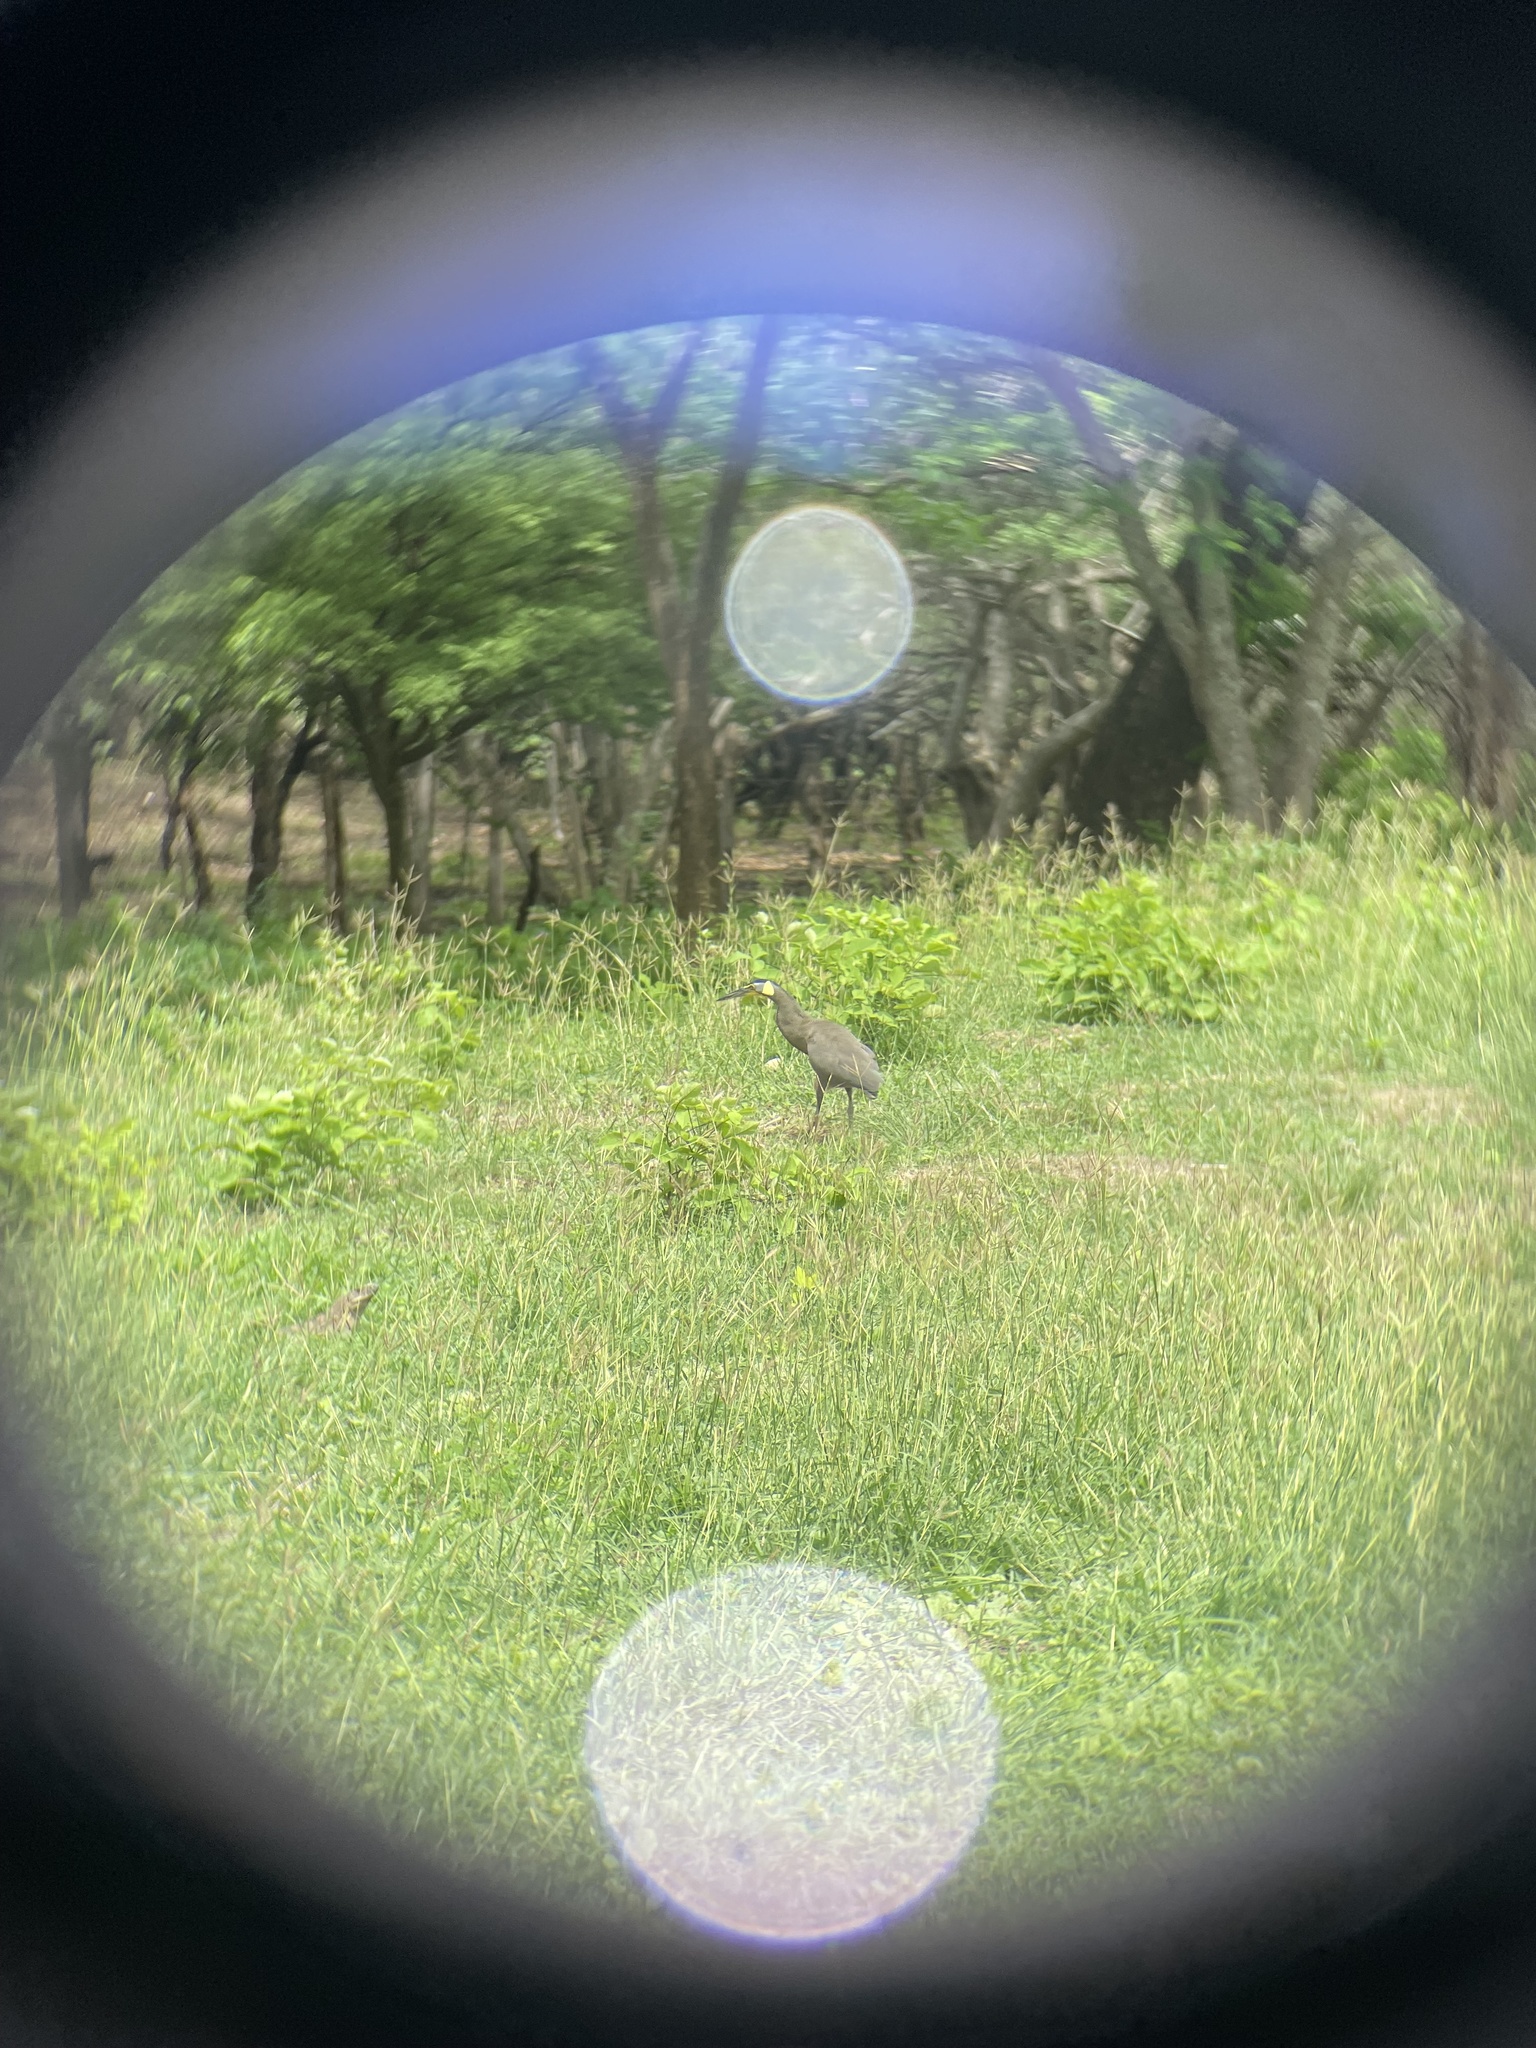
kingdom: Animalia
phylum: Chordata
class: Aves
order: Pelecaniformes
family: Ardeidae
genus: Tigrisoma
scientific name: Tigrisoma mexicanum
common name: Bare-throated tiger-heron
